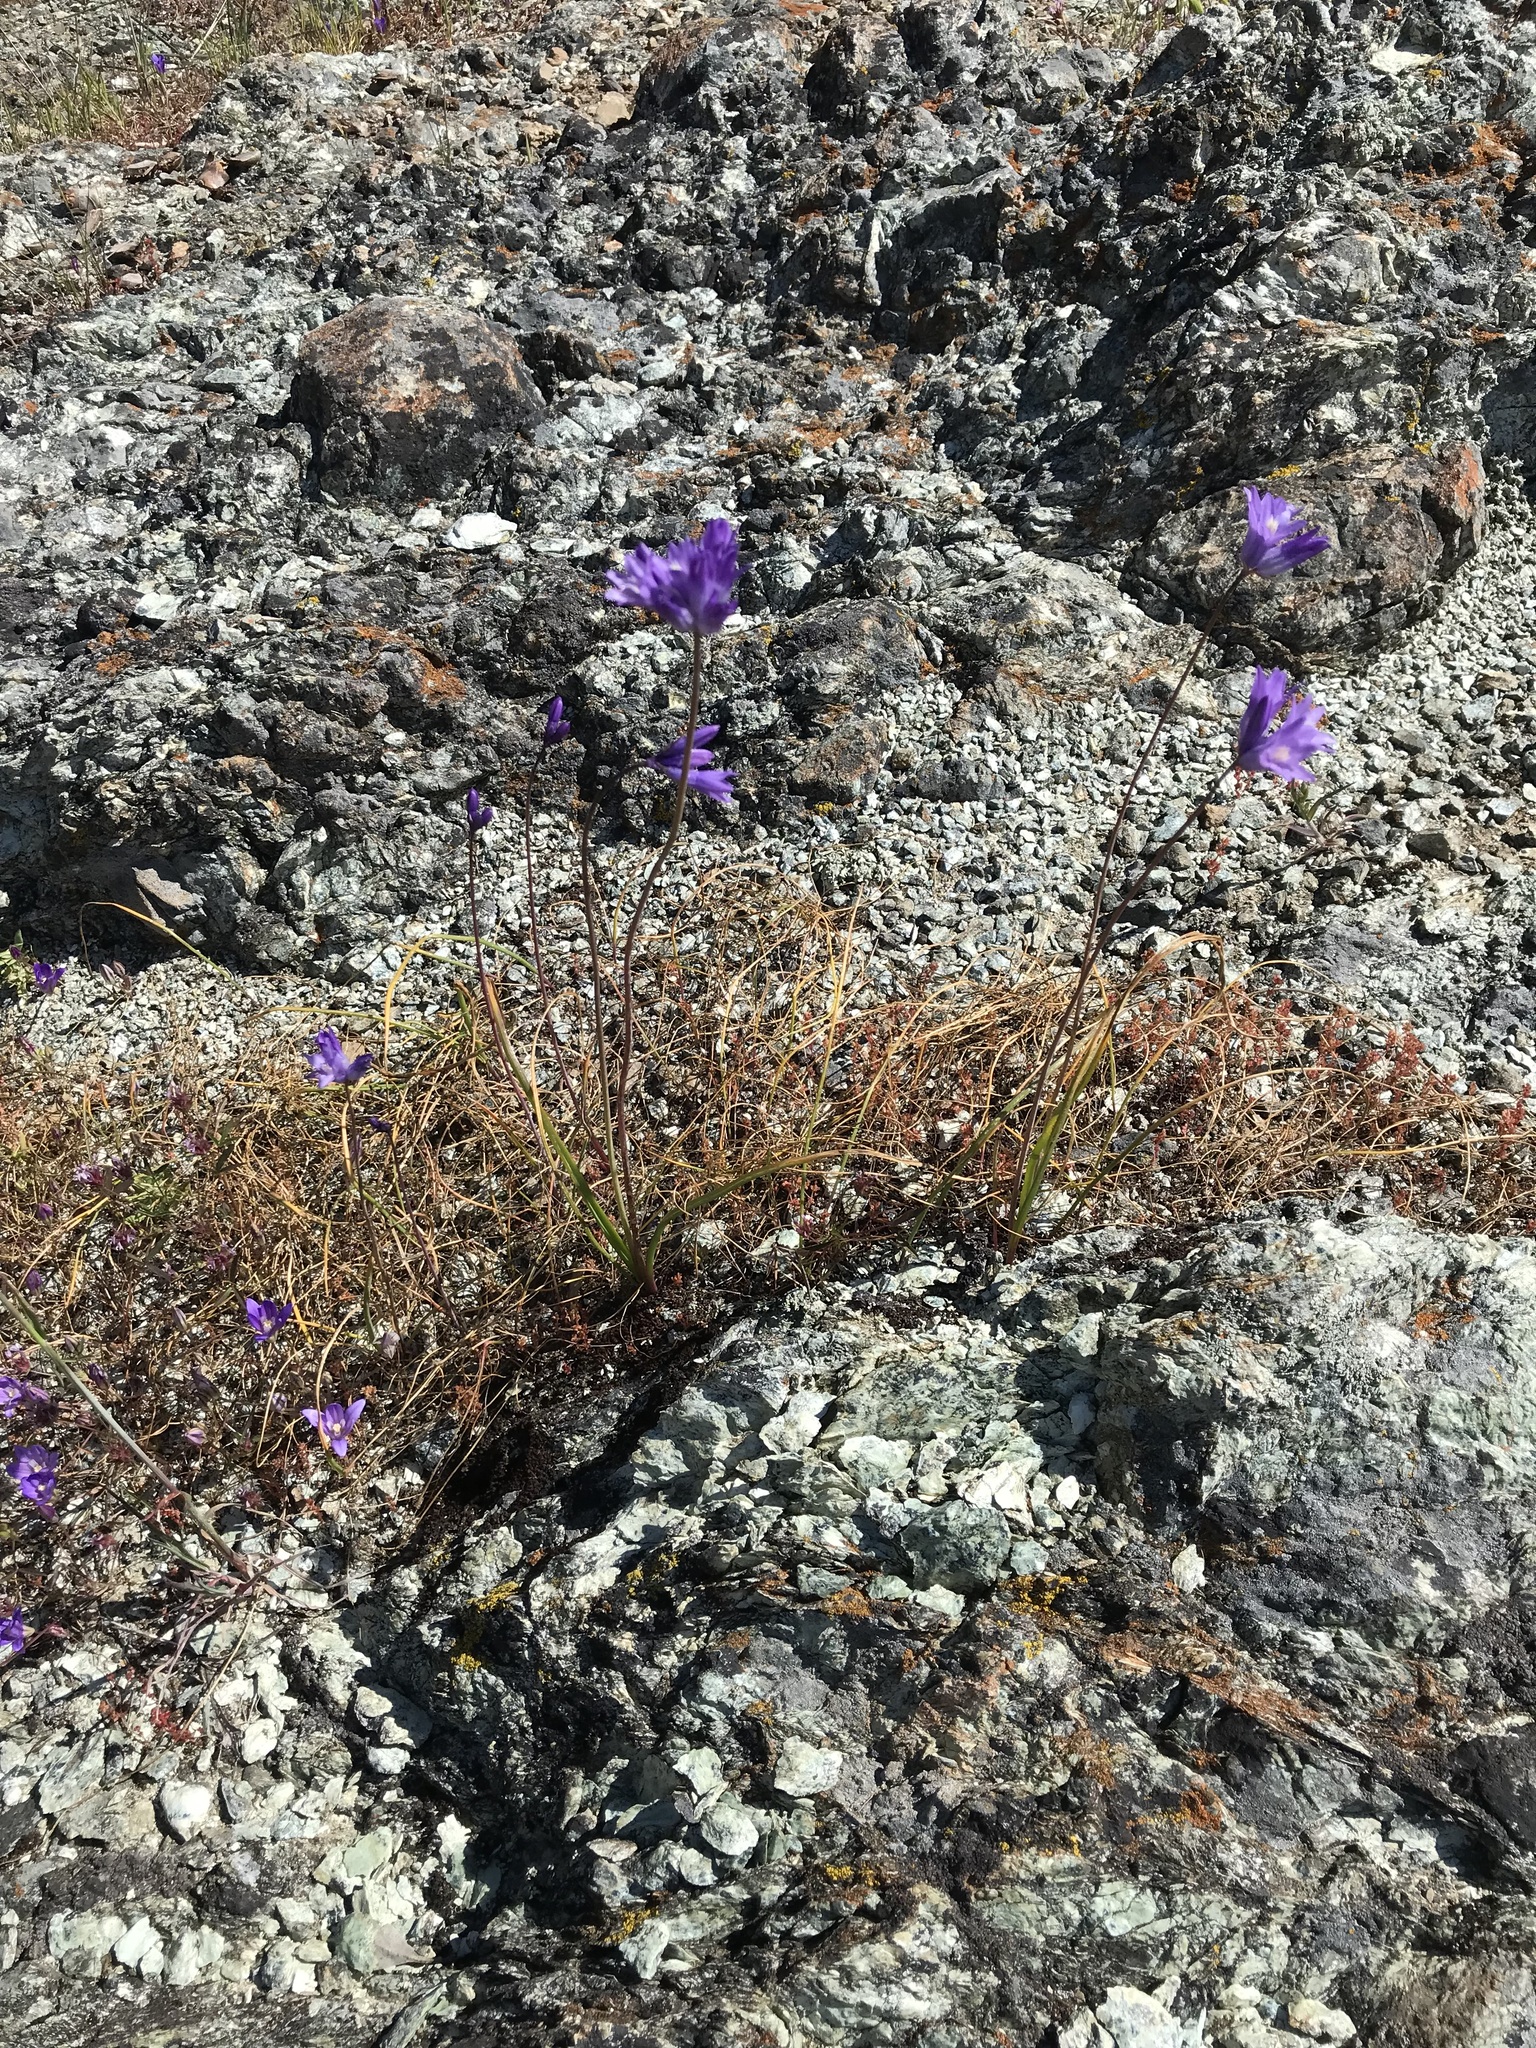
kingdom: Plantae
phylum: Tracheophyta
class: Liliopsida
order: Asparagales
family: Asparagaceae
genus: Dipterostemon
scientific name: Dipterostemon capitatus
